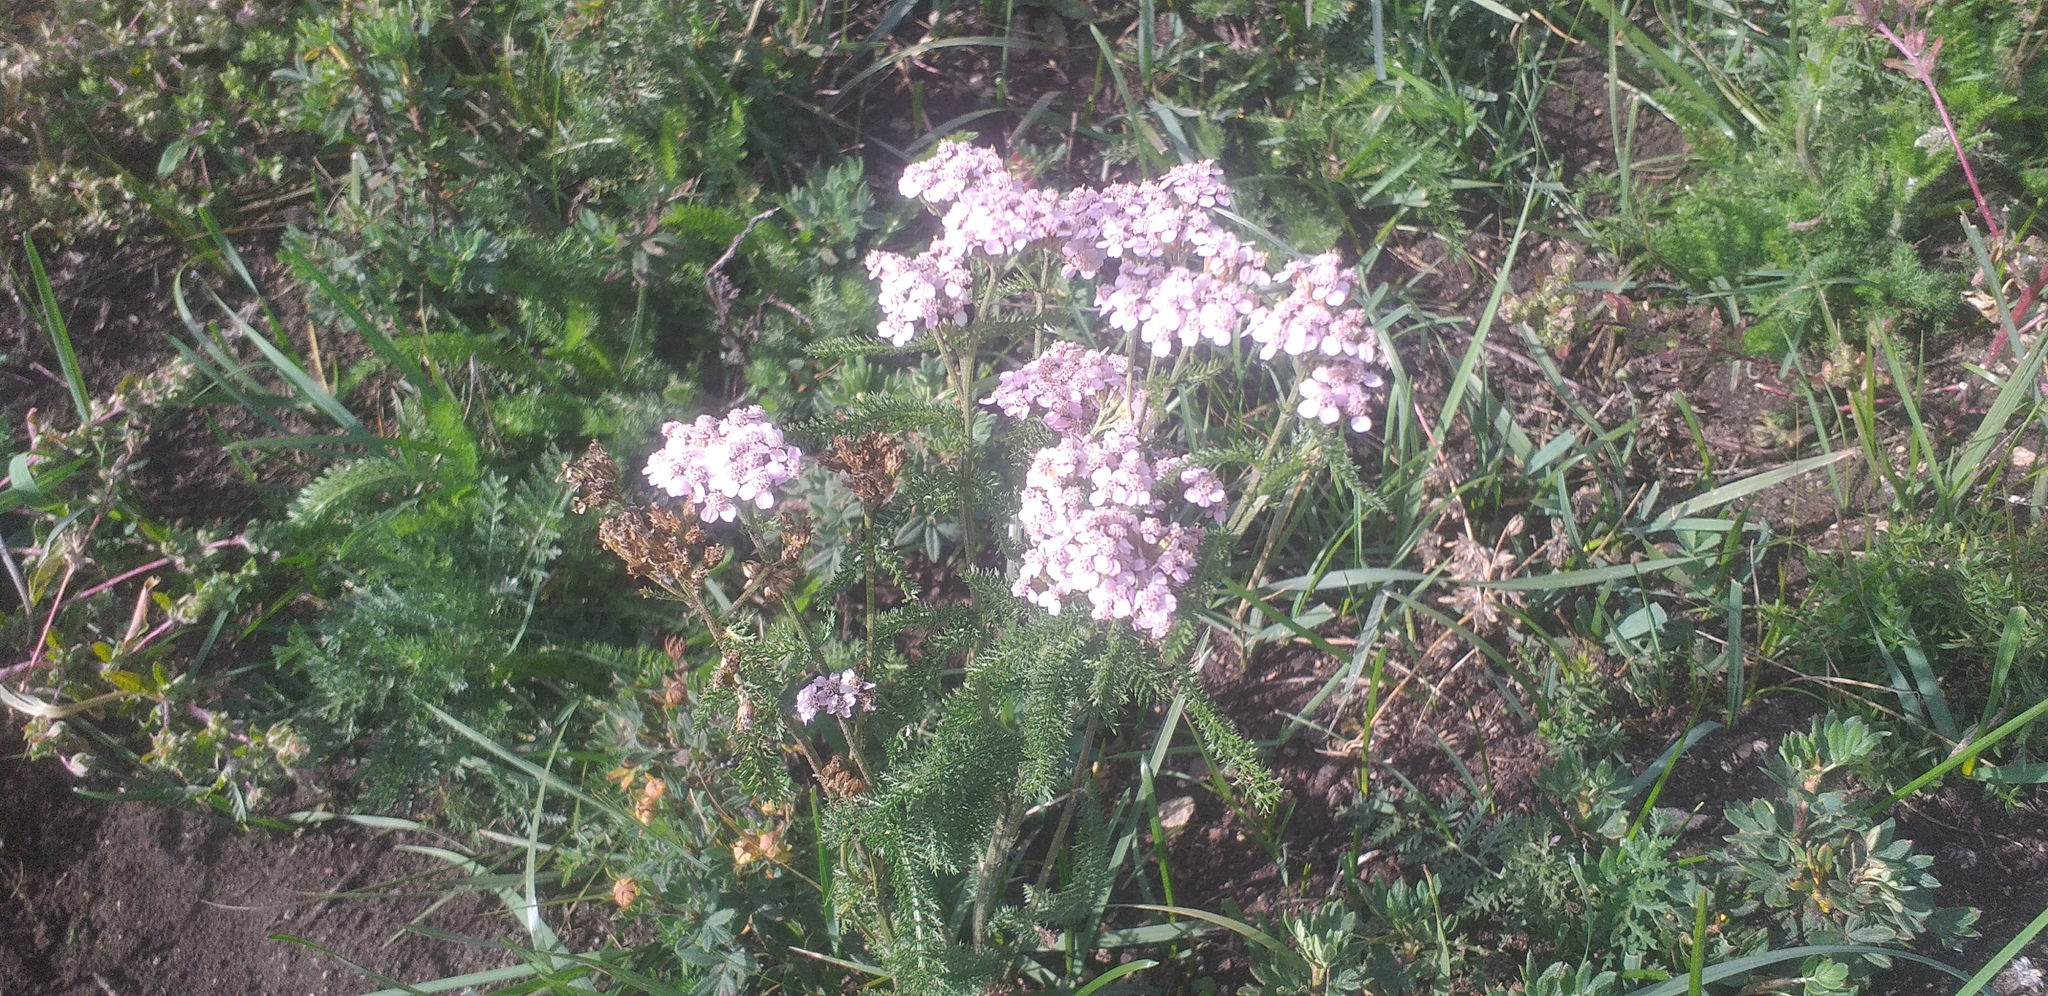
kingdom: Plantae
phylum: Tracheophyta
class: Magnoliopsida
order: Asterales
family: Asteraceae
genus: Achillea
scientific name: Achillea asiatica
